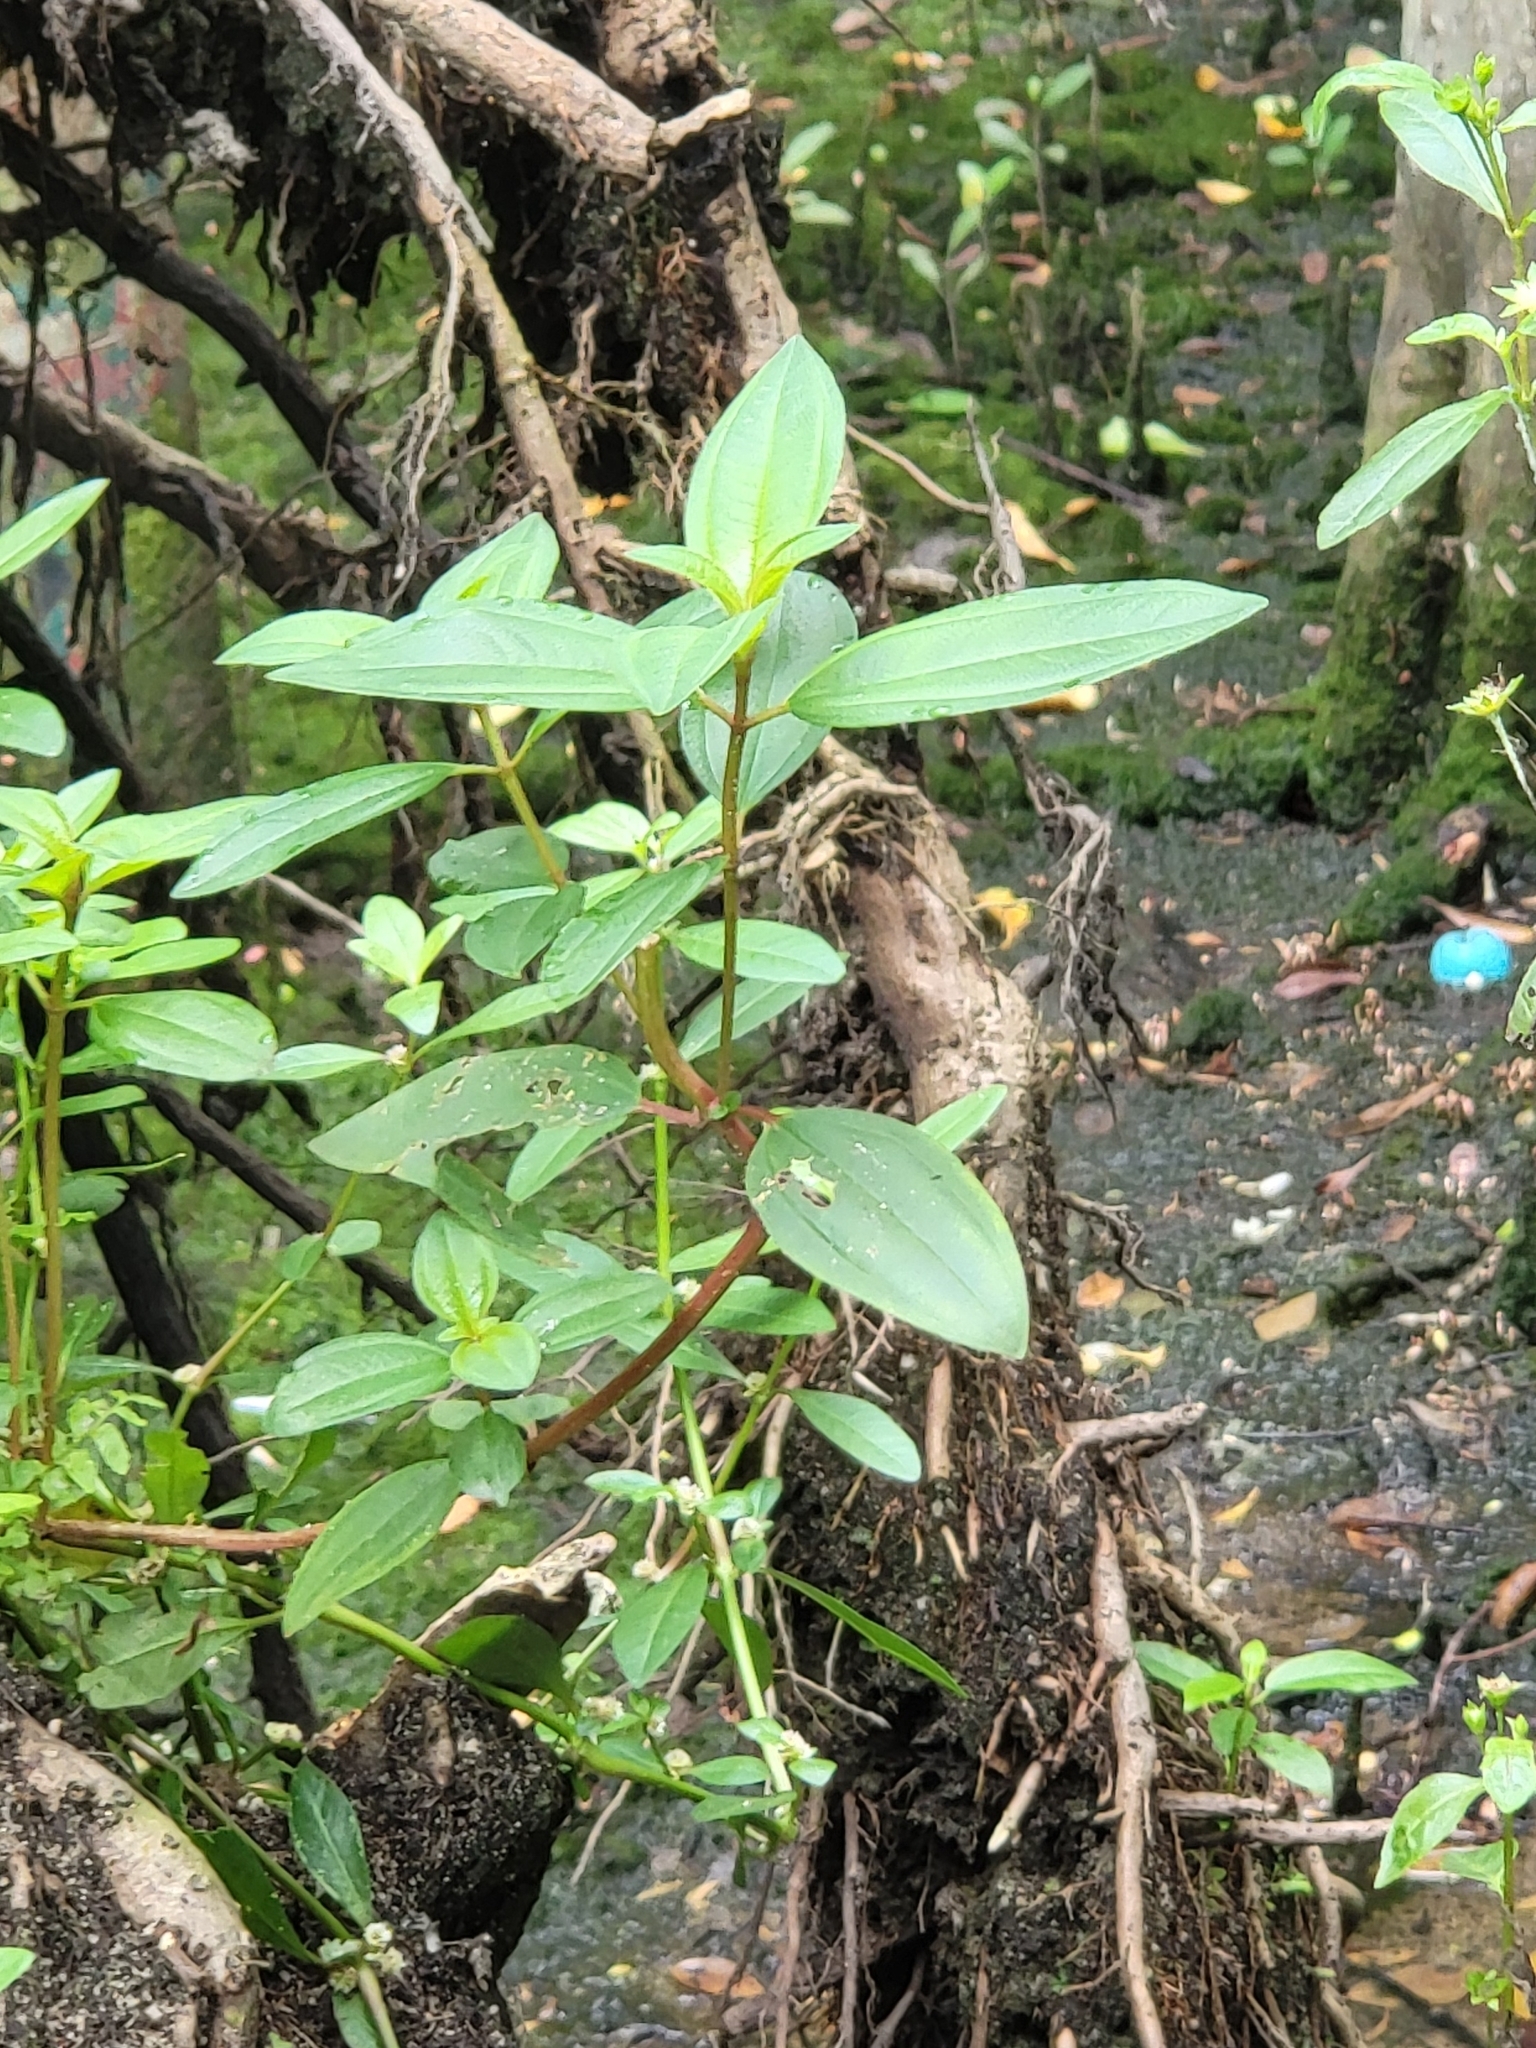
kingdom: Plantae
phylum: Tracheophyta
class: Magnoliopsida
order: Myrtales
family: Melastomataceae
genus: Melastoma
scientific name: Melastoma malabathricum
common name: Indian-rhododendron
